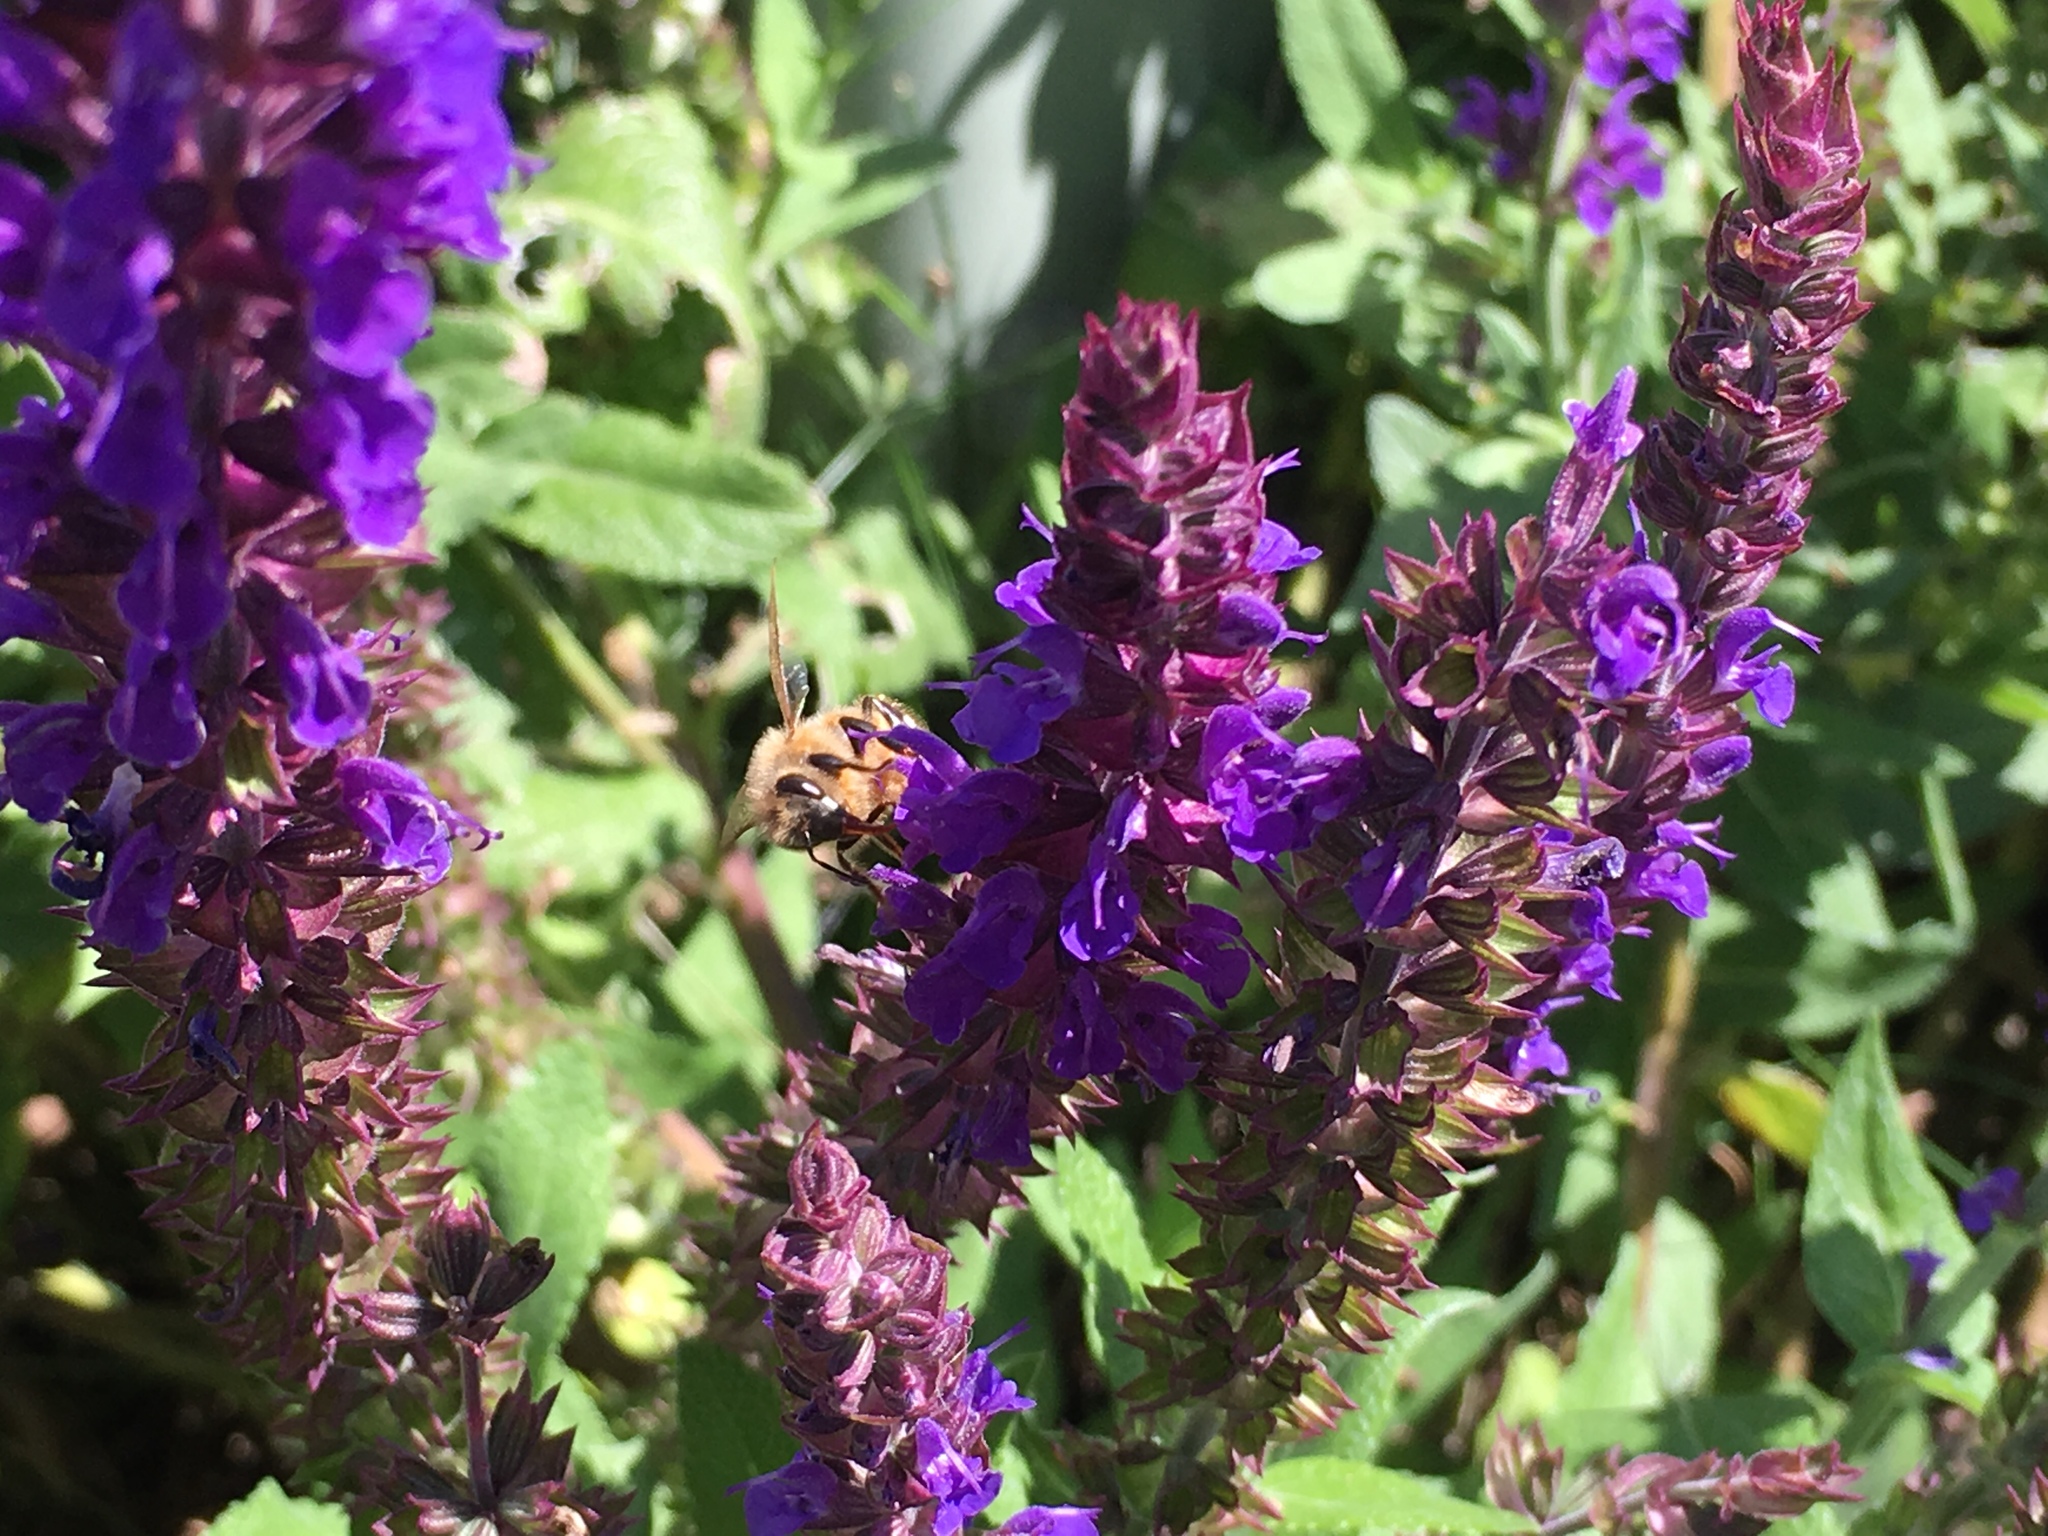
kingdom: Animalia
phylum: Arthropoda
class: Insecta
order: Hymenoptera
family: Apidae
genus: Apis
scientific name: Apis mellifera
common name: Honey bee
